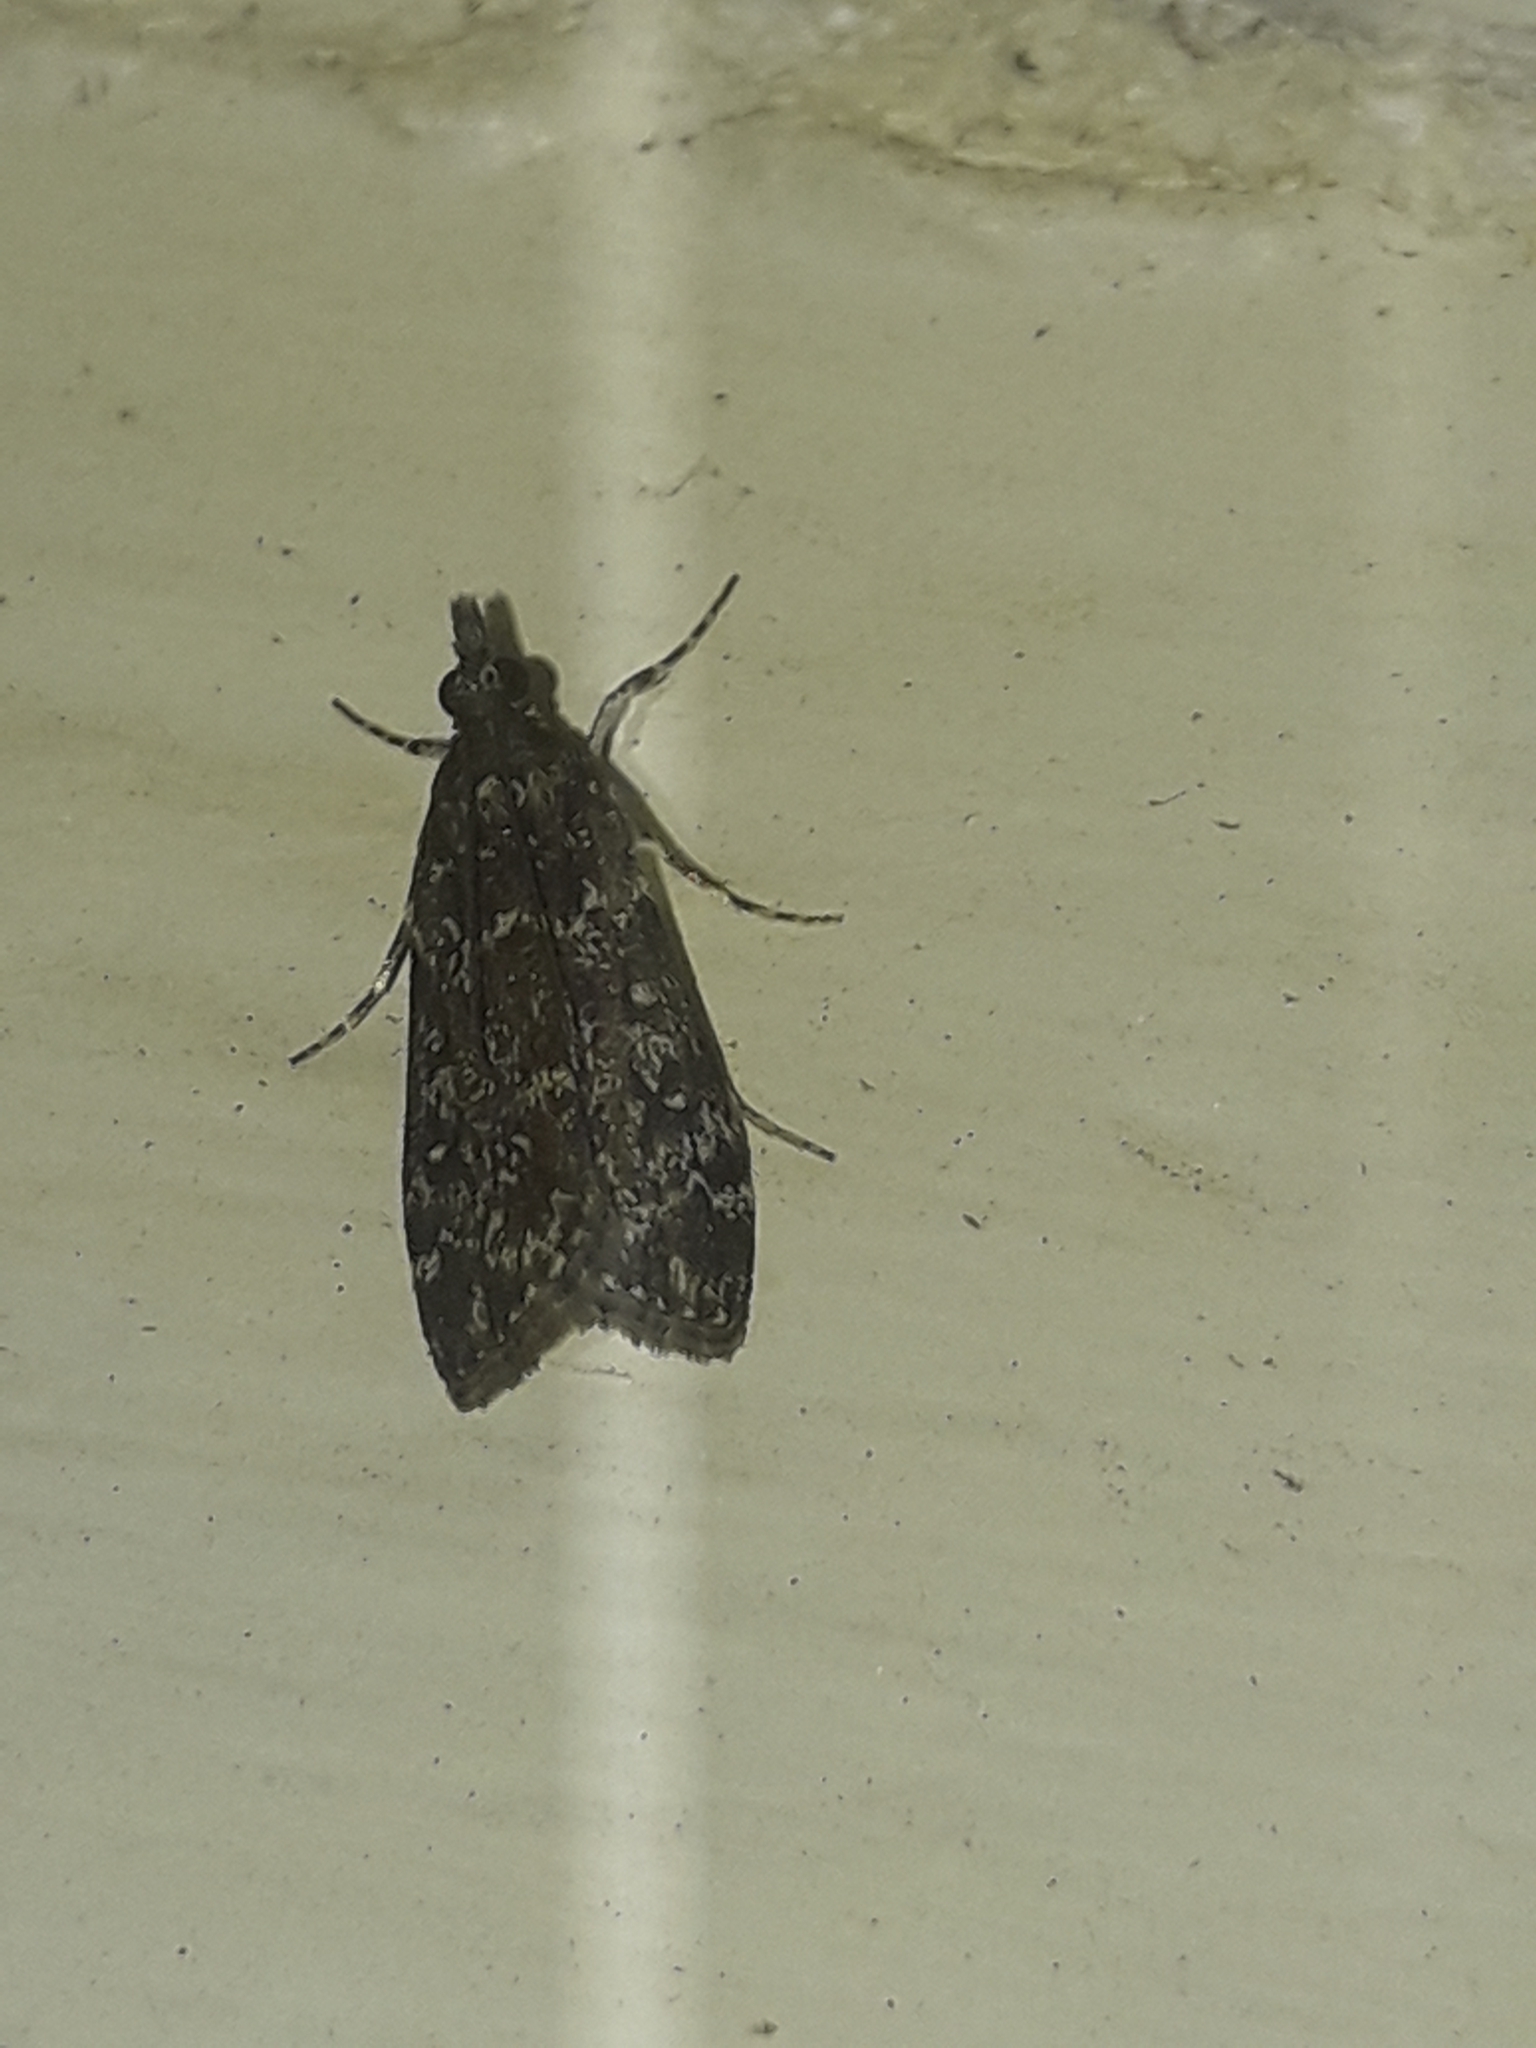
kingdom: Animalia
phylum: Arthropoda
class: Insecta
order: Lepidoptera
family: Crambidae
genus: Eudonia
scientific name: Eudonia philerga
